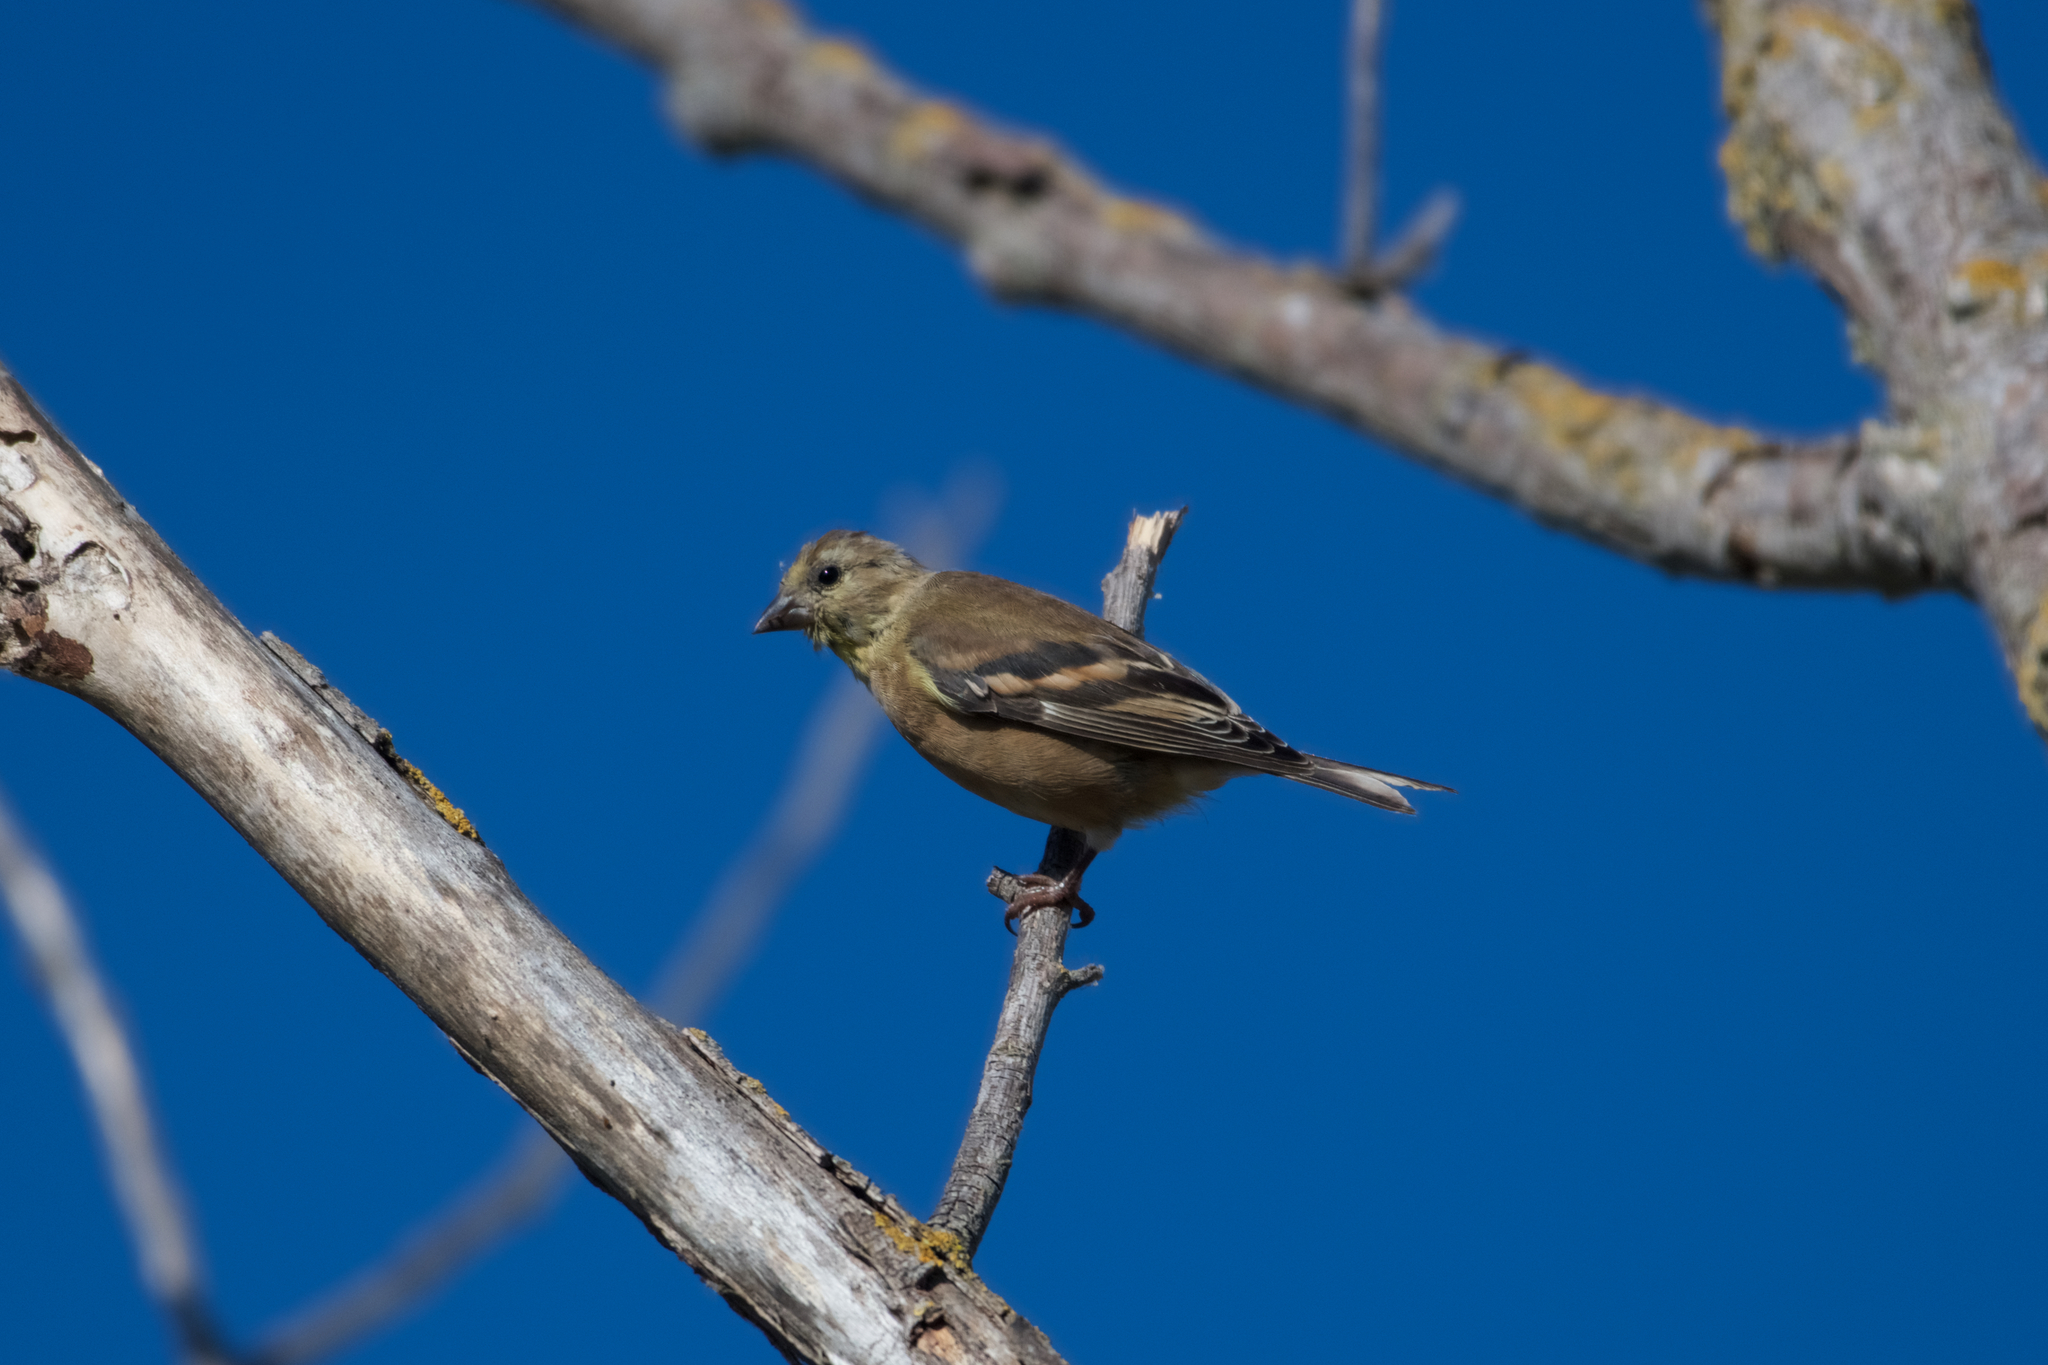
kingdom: Animalia
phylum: Chordata
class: Aves
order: Passeriformes
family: Fringillidae
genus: Spinus
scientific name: Spinus tristis
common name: American goldfinch
